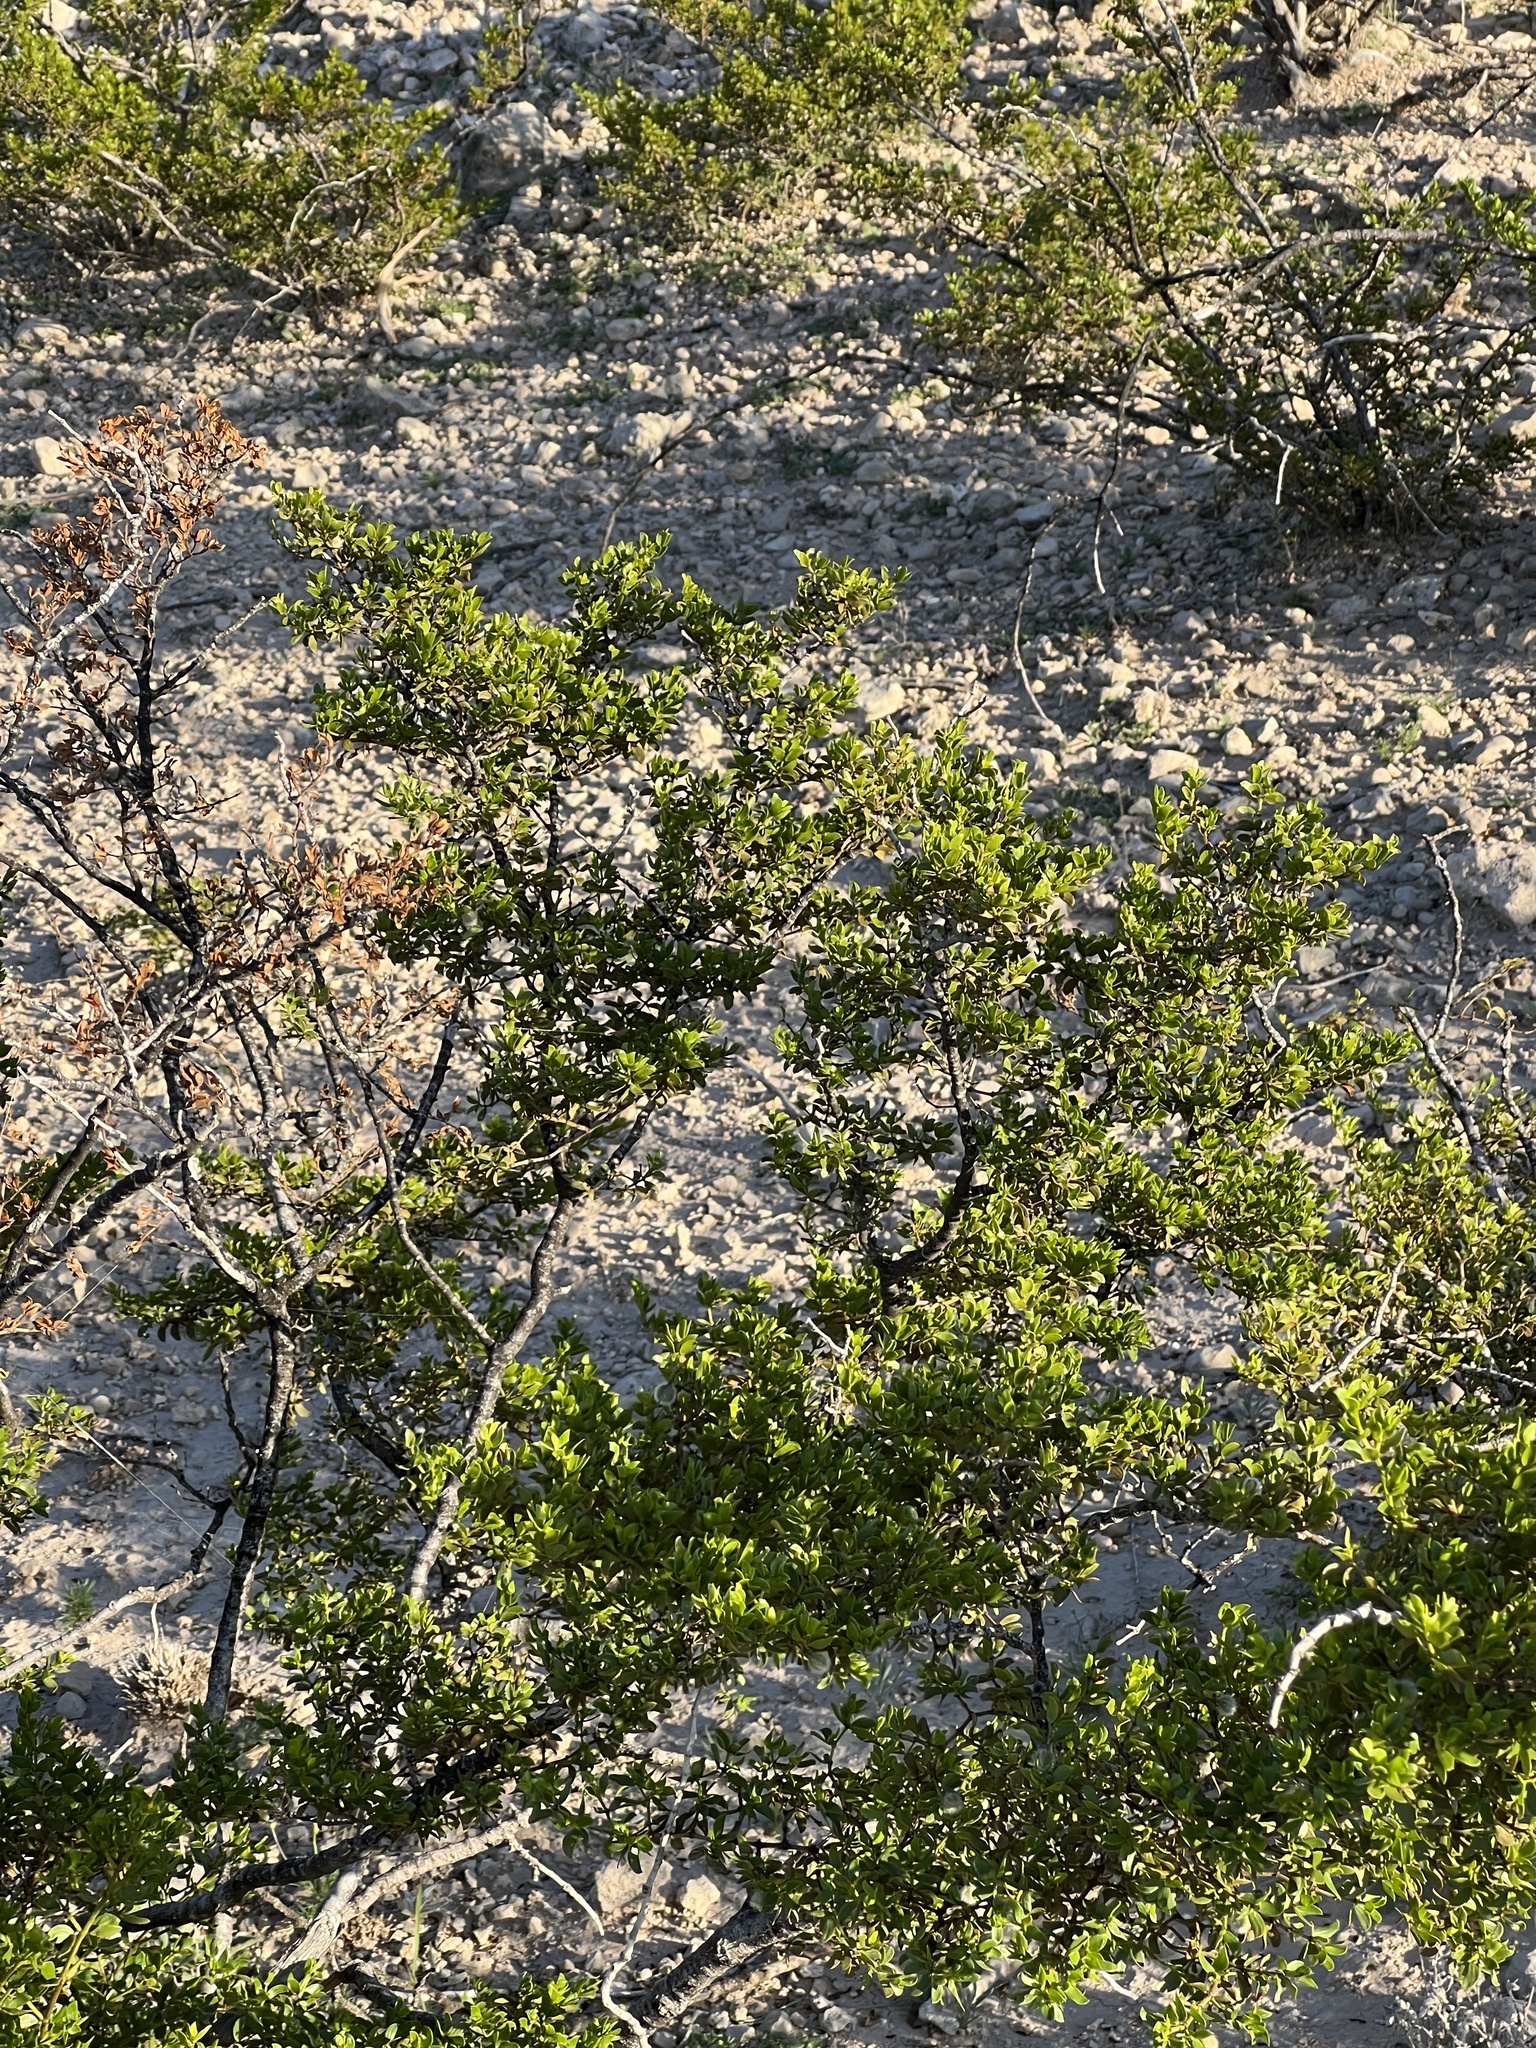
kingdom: Plantae
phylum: Tracheophyta
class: Magnoliopsida
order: Zygophyllales
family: Zygophyllaceae
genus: Larrea
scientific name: Larrea tridentata
